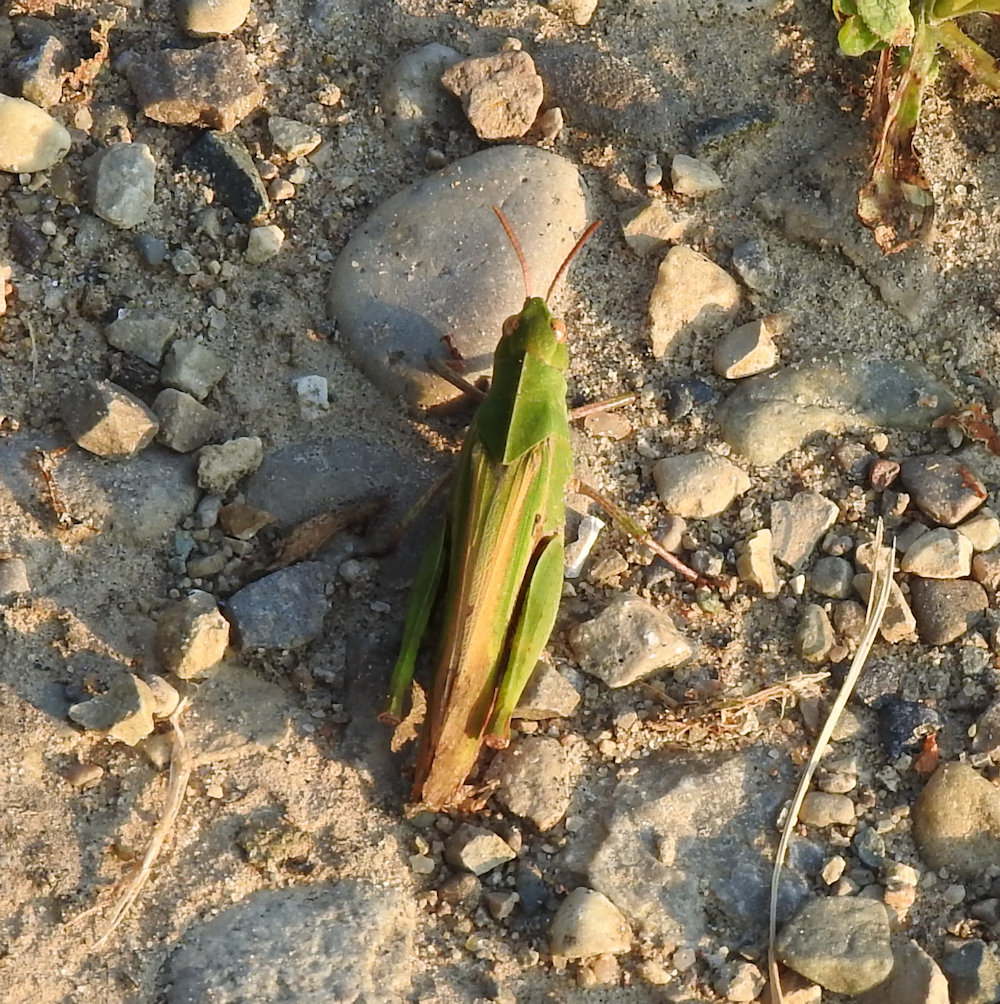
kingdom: Animalia
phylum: Arthropoda
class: Insecta
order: Orthoptera
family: Acrididae
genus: Chortophaga
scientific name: Chortophaga viridifasciata
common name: Green-striped grasshopper
